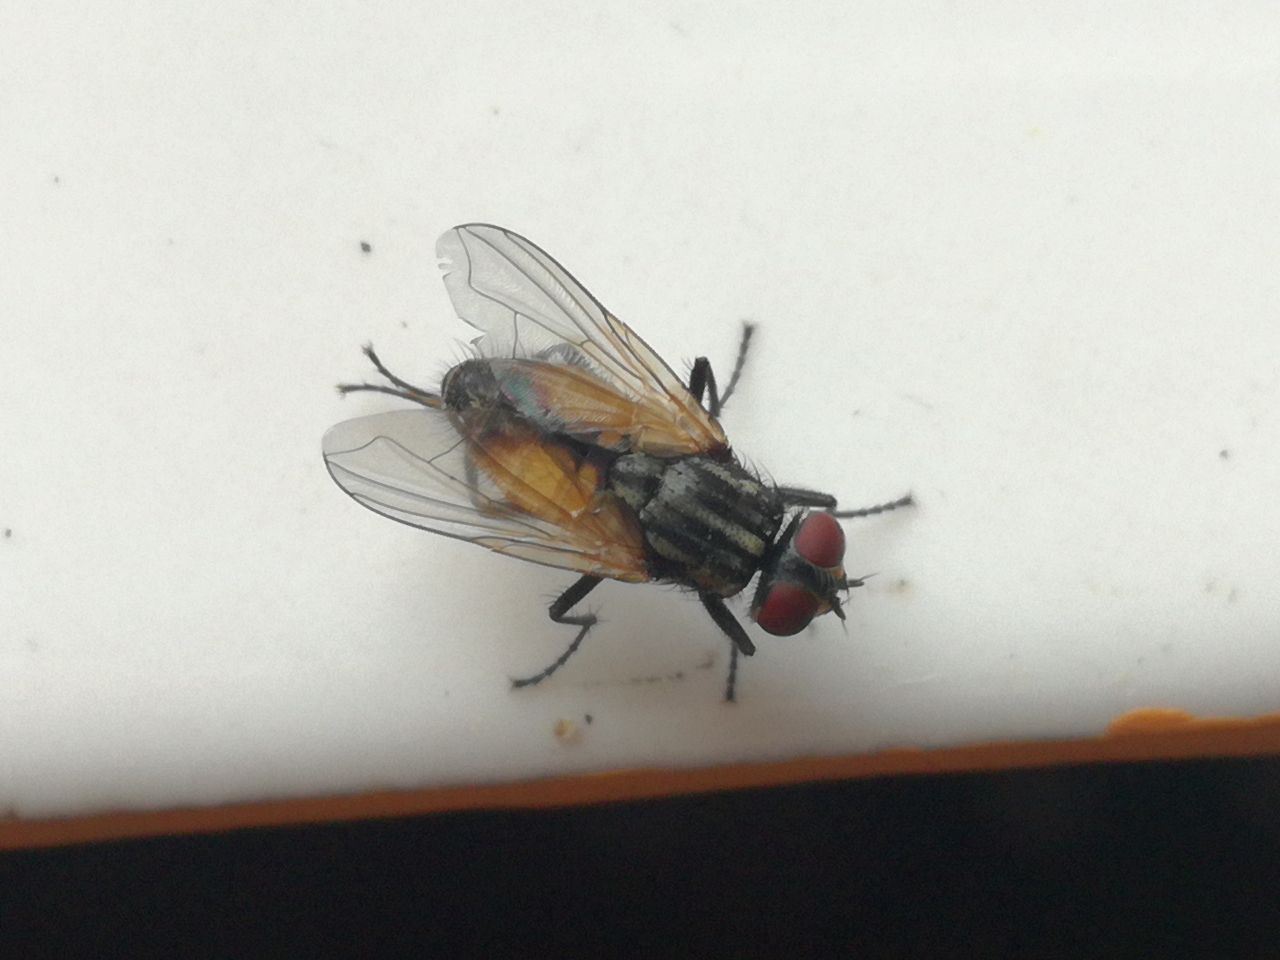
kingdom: Animalia
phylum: Arthropoda
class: Insecta
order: Diptera
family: Muscidae
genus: Musca
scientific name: Musca domestica
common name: House fly
